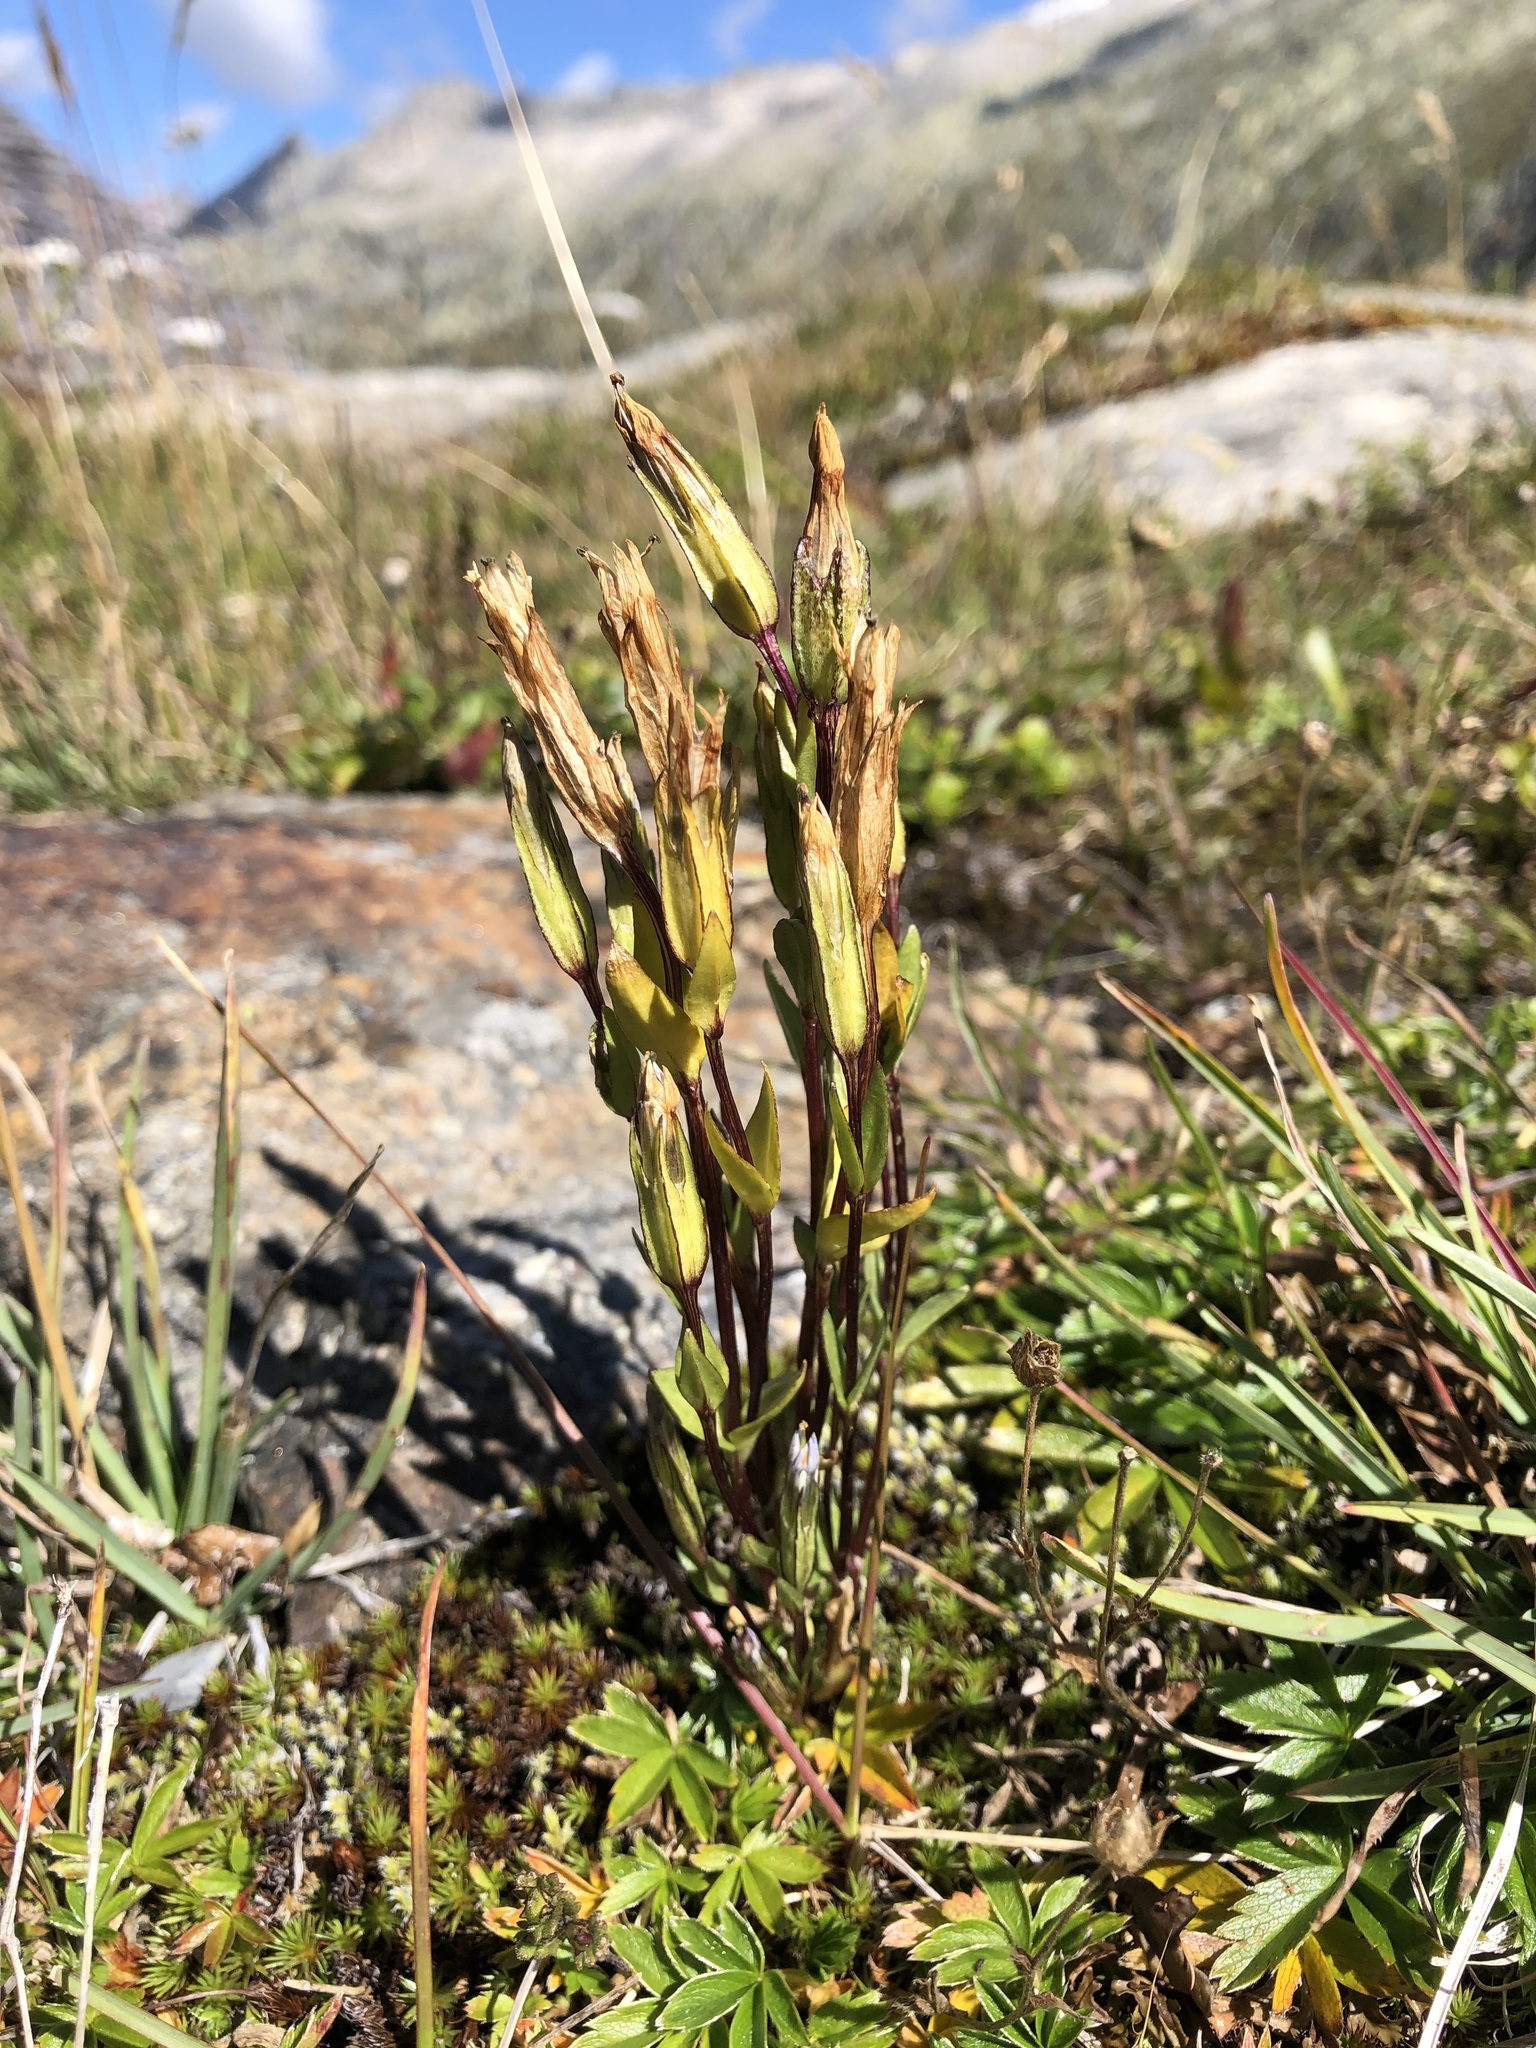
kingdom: Plantae
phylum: Tracheophyta
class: Magnoliopsida
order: Gentianales
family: Gentianaceae
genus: Gentiana
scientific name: Gentiana nivalis
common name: Alpine gentian
